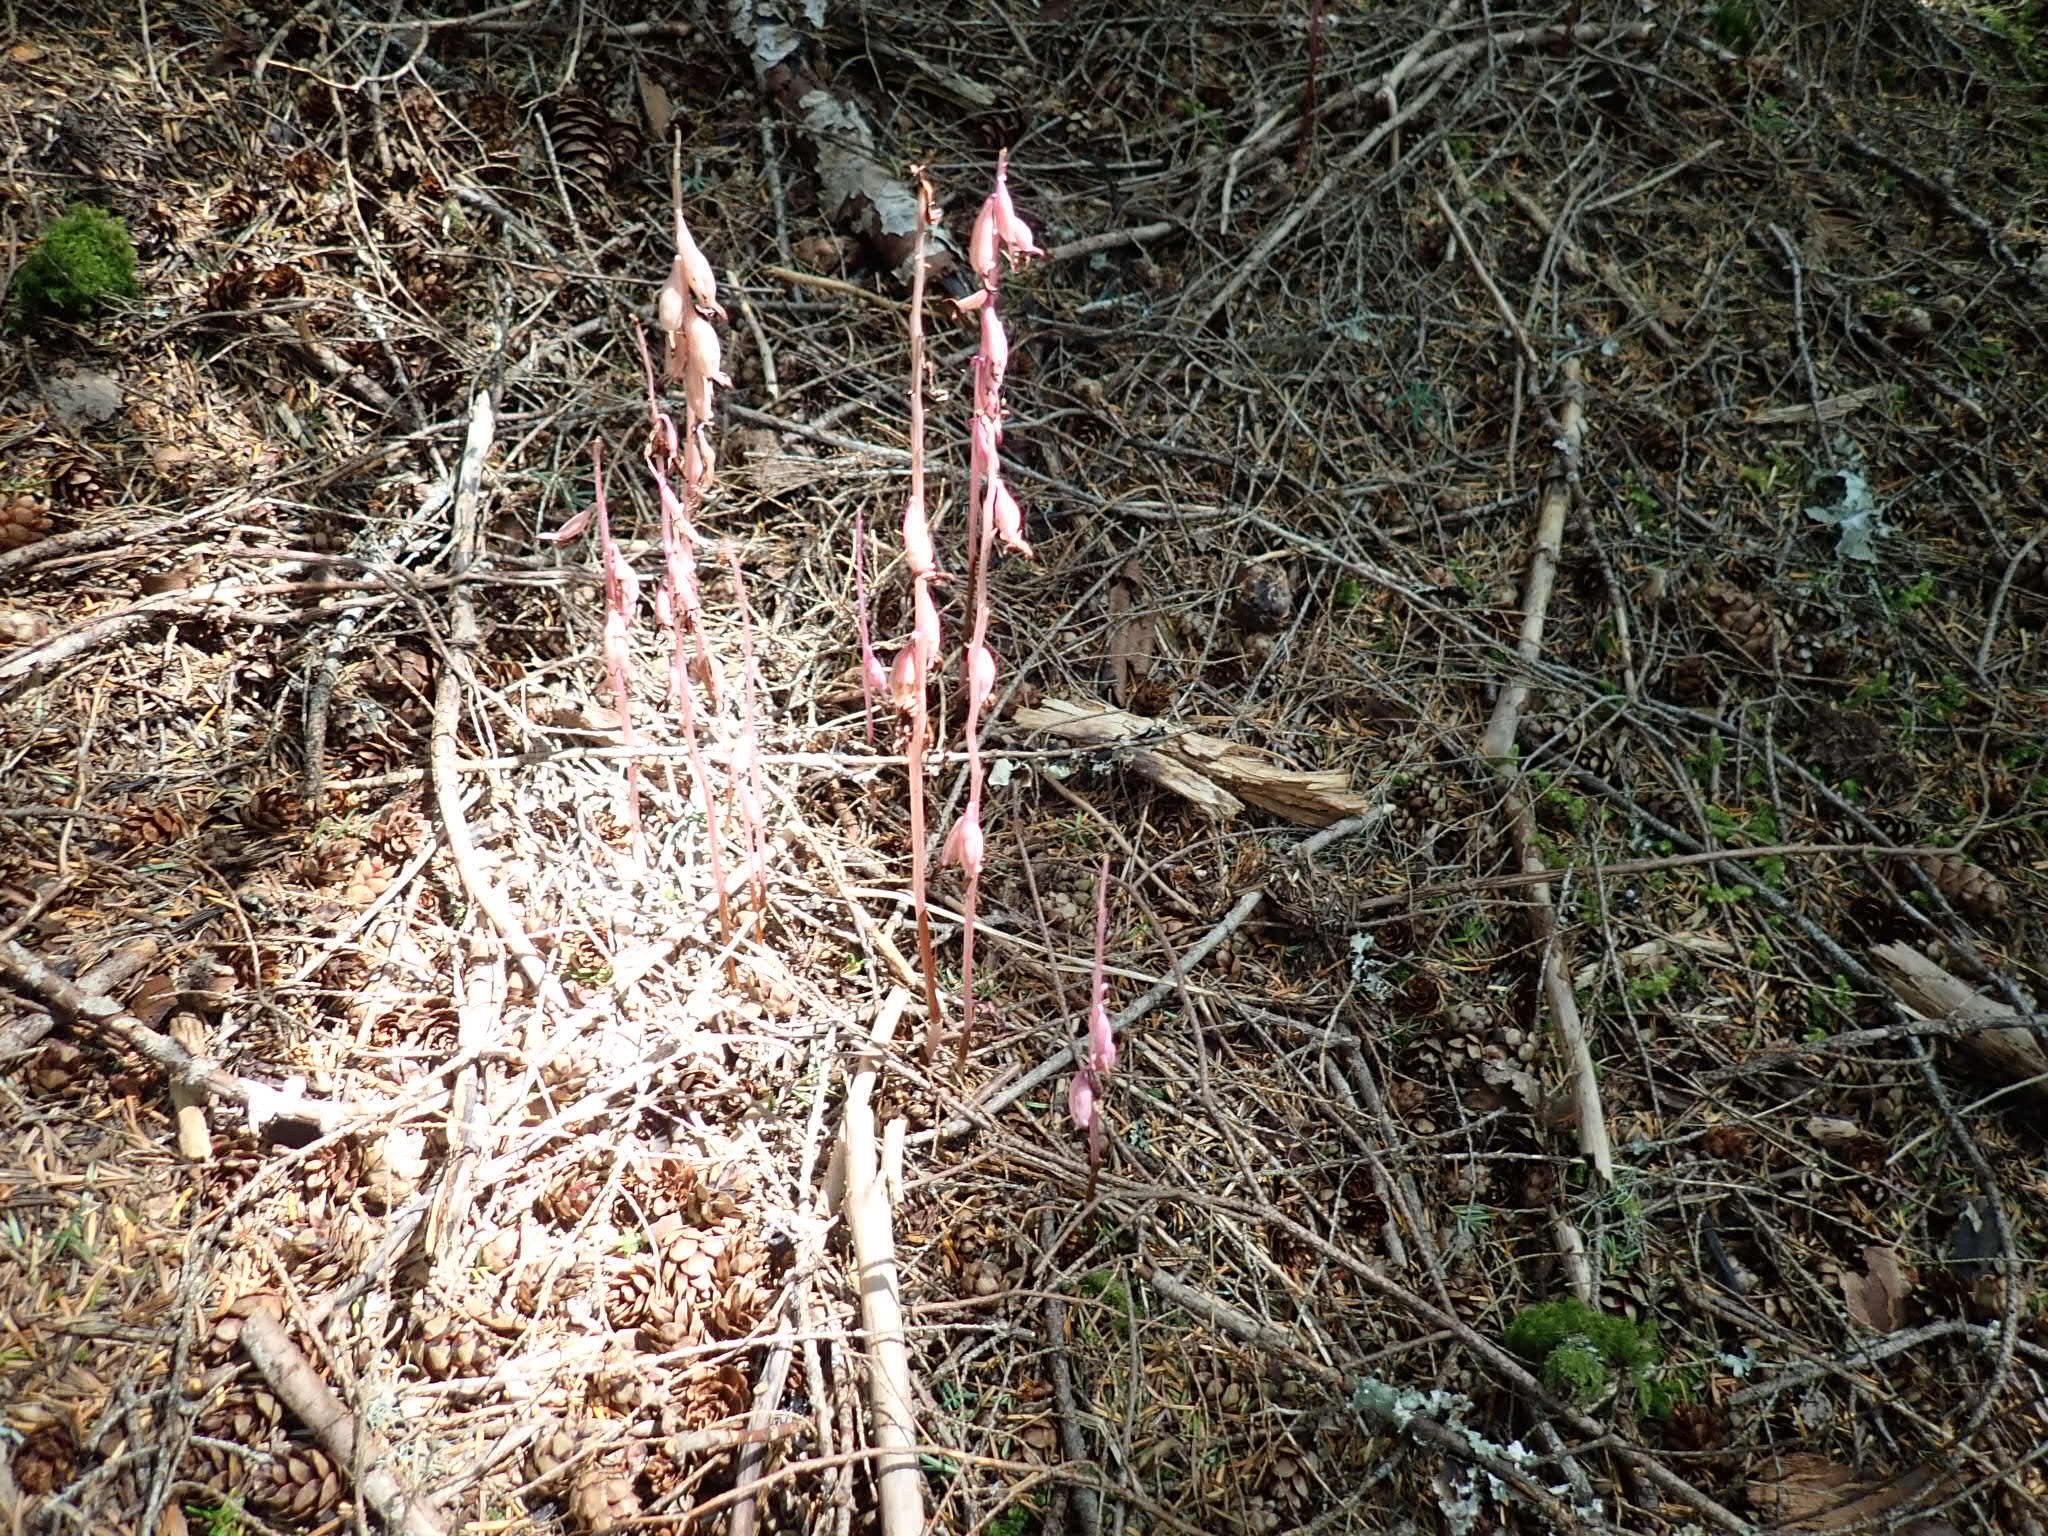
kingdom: Plantae
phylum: Tracheophyta
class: Liliopsida
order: Asparagales
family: Orchidaceae
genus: Corallorhiza
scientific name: Corallorhiza mertensiana
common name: Pacific coralroot
